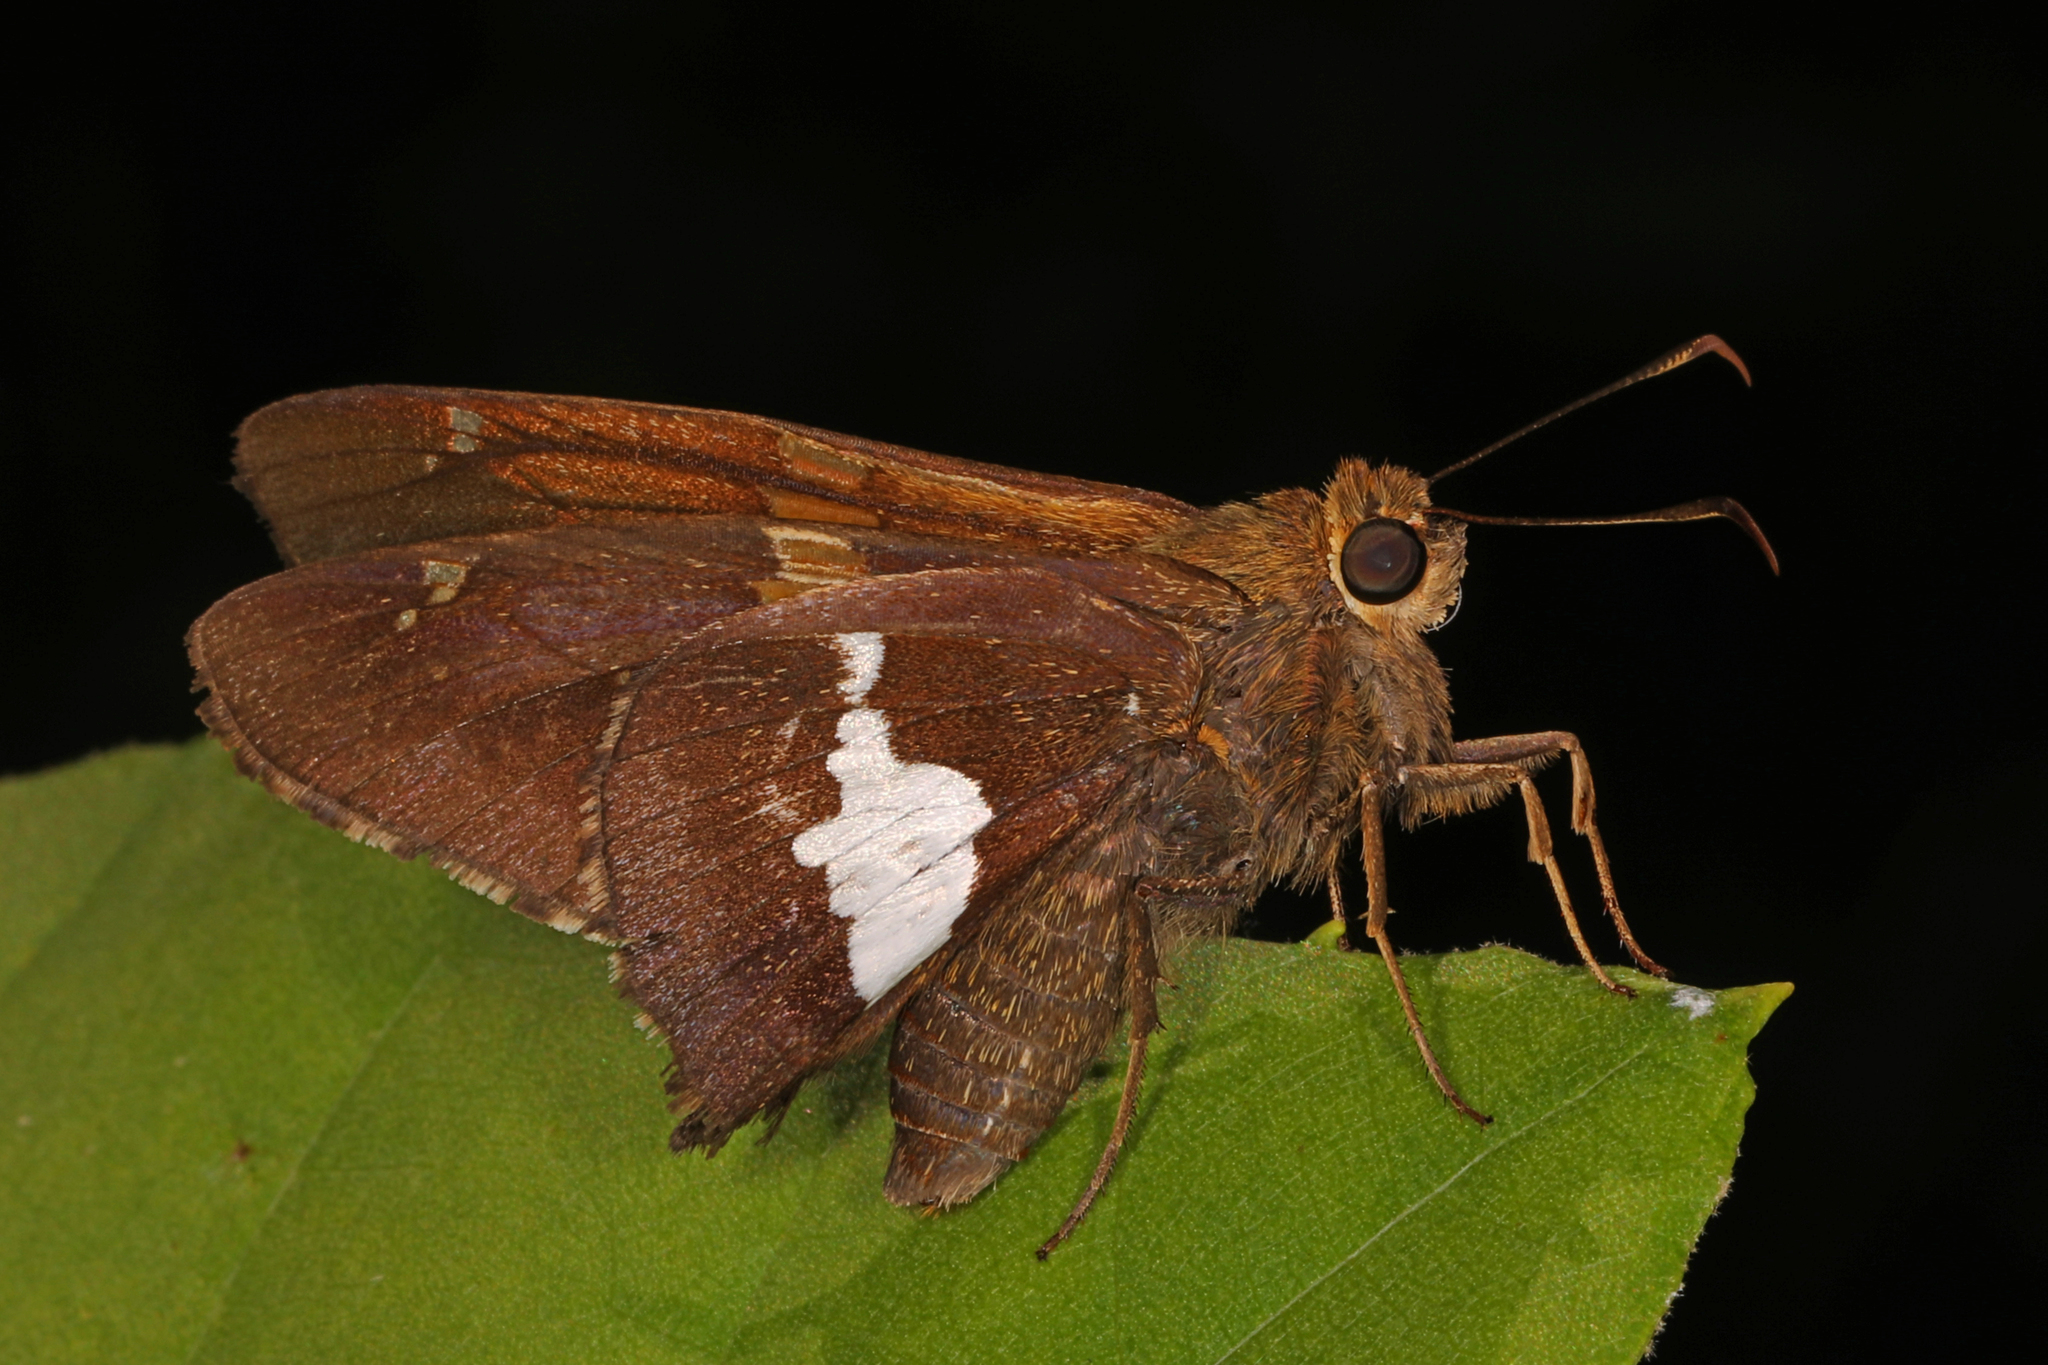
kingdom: Animalia
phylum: Arthropoda
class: Insecta
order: Lepidoptera
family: Hesperiidae
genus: Epargyreus
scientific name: Epargyreus clarus
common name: Silver-spotted skipper
